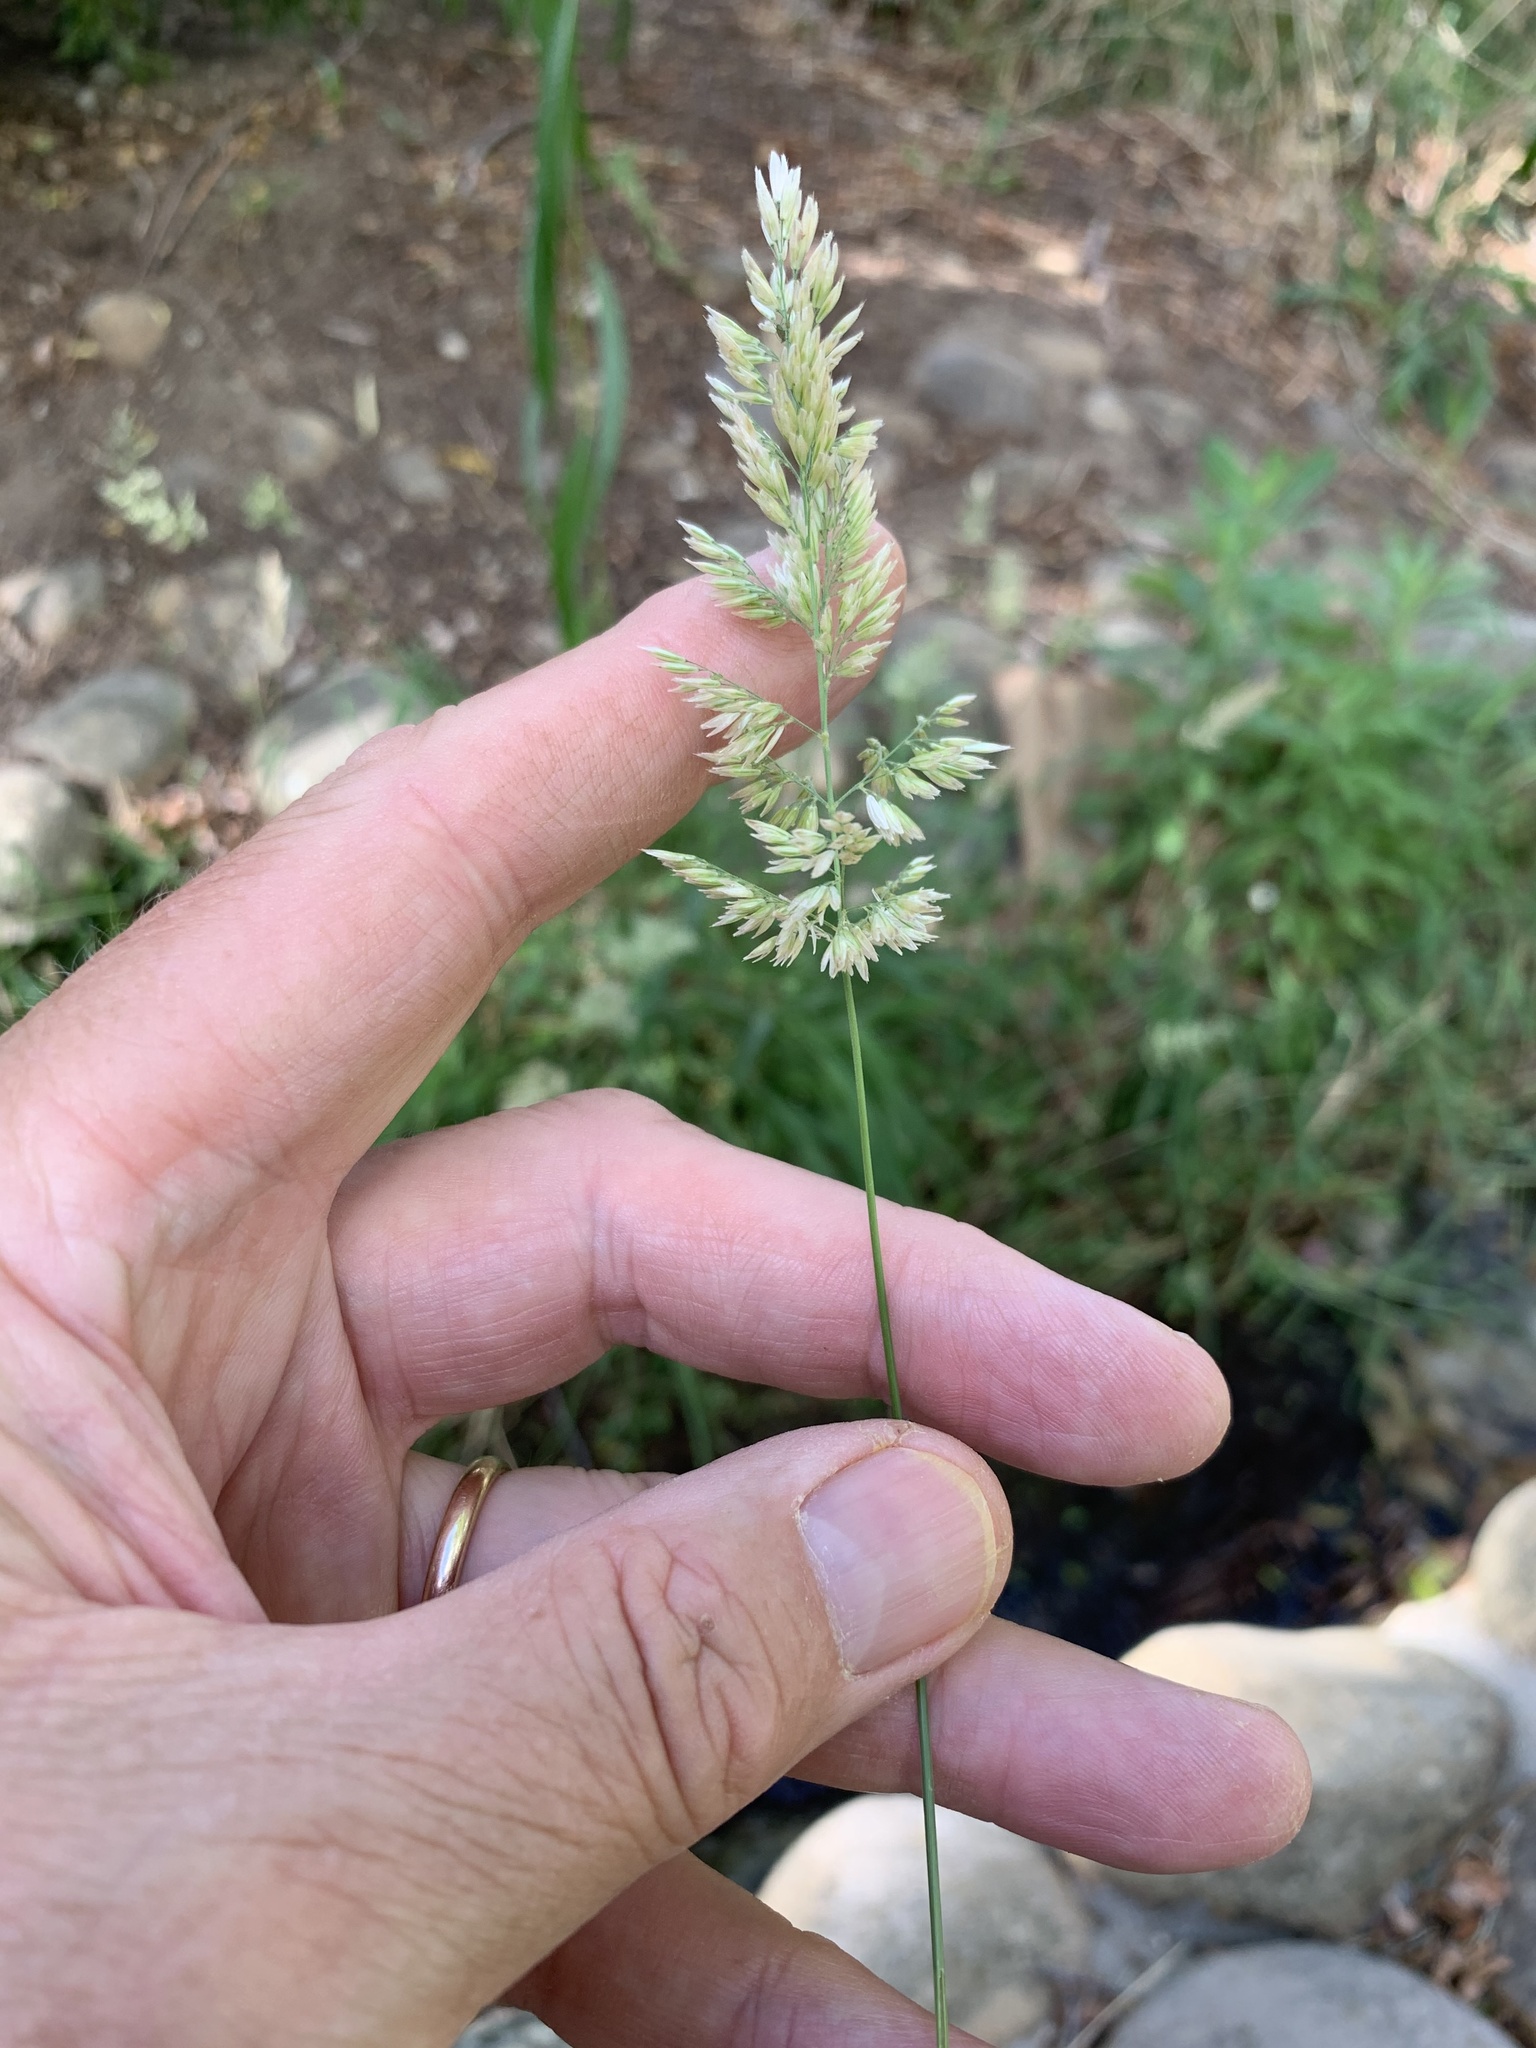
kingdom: Plantae
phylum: Tracheophyta
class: Liliopsida
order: Poales
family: Poaceae
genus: Holcus
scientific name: Holcus lanatus
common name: Yorkshire-fog
